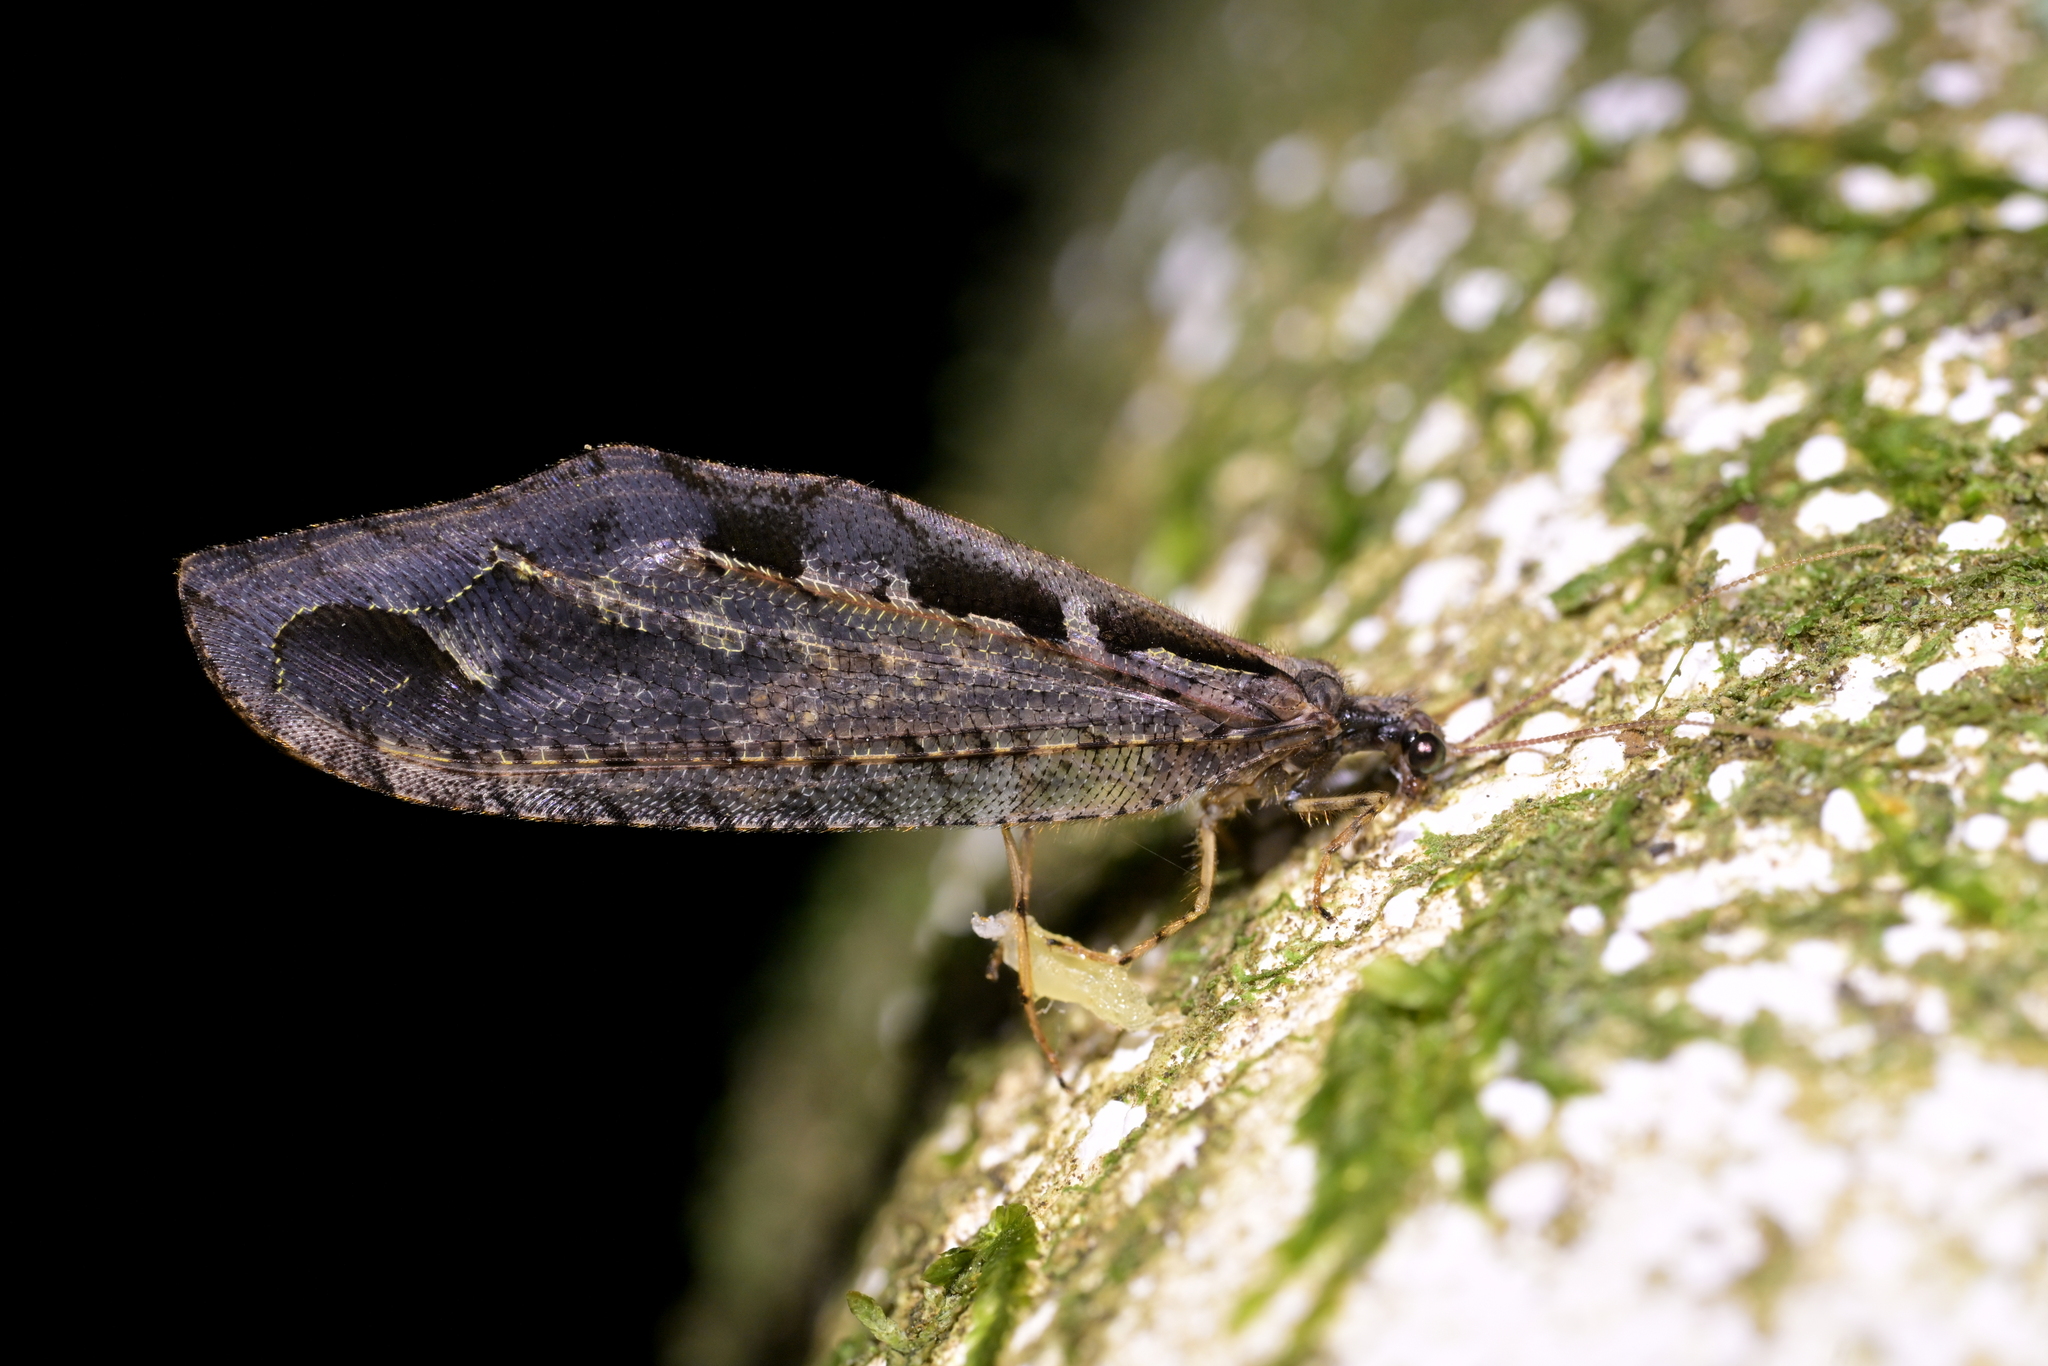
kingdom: Animalia
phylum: Arthropoda
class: Insecta
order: Neuroptera
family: Osmylidae
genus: Kempynus
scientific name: Kempynus incisus
